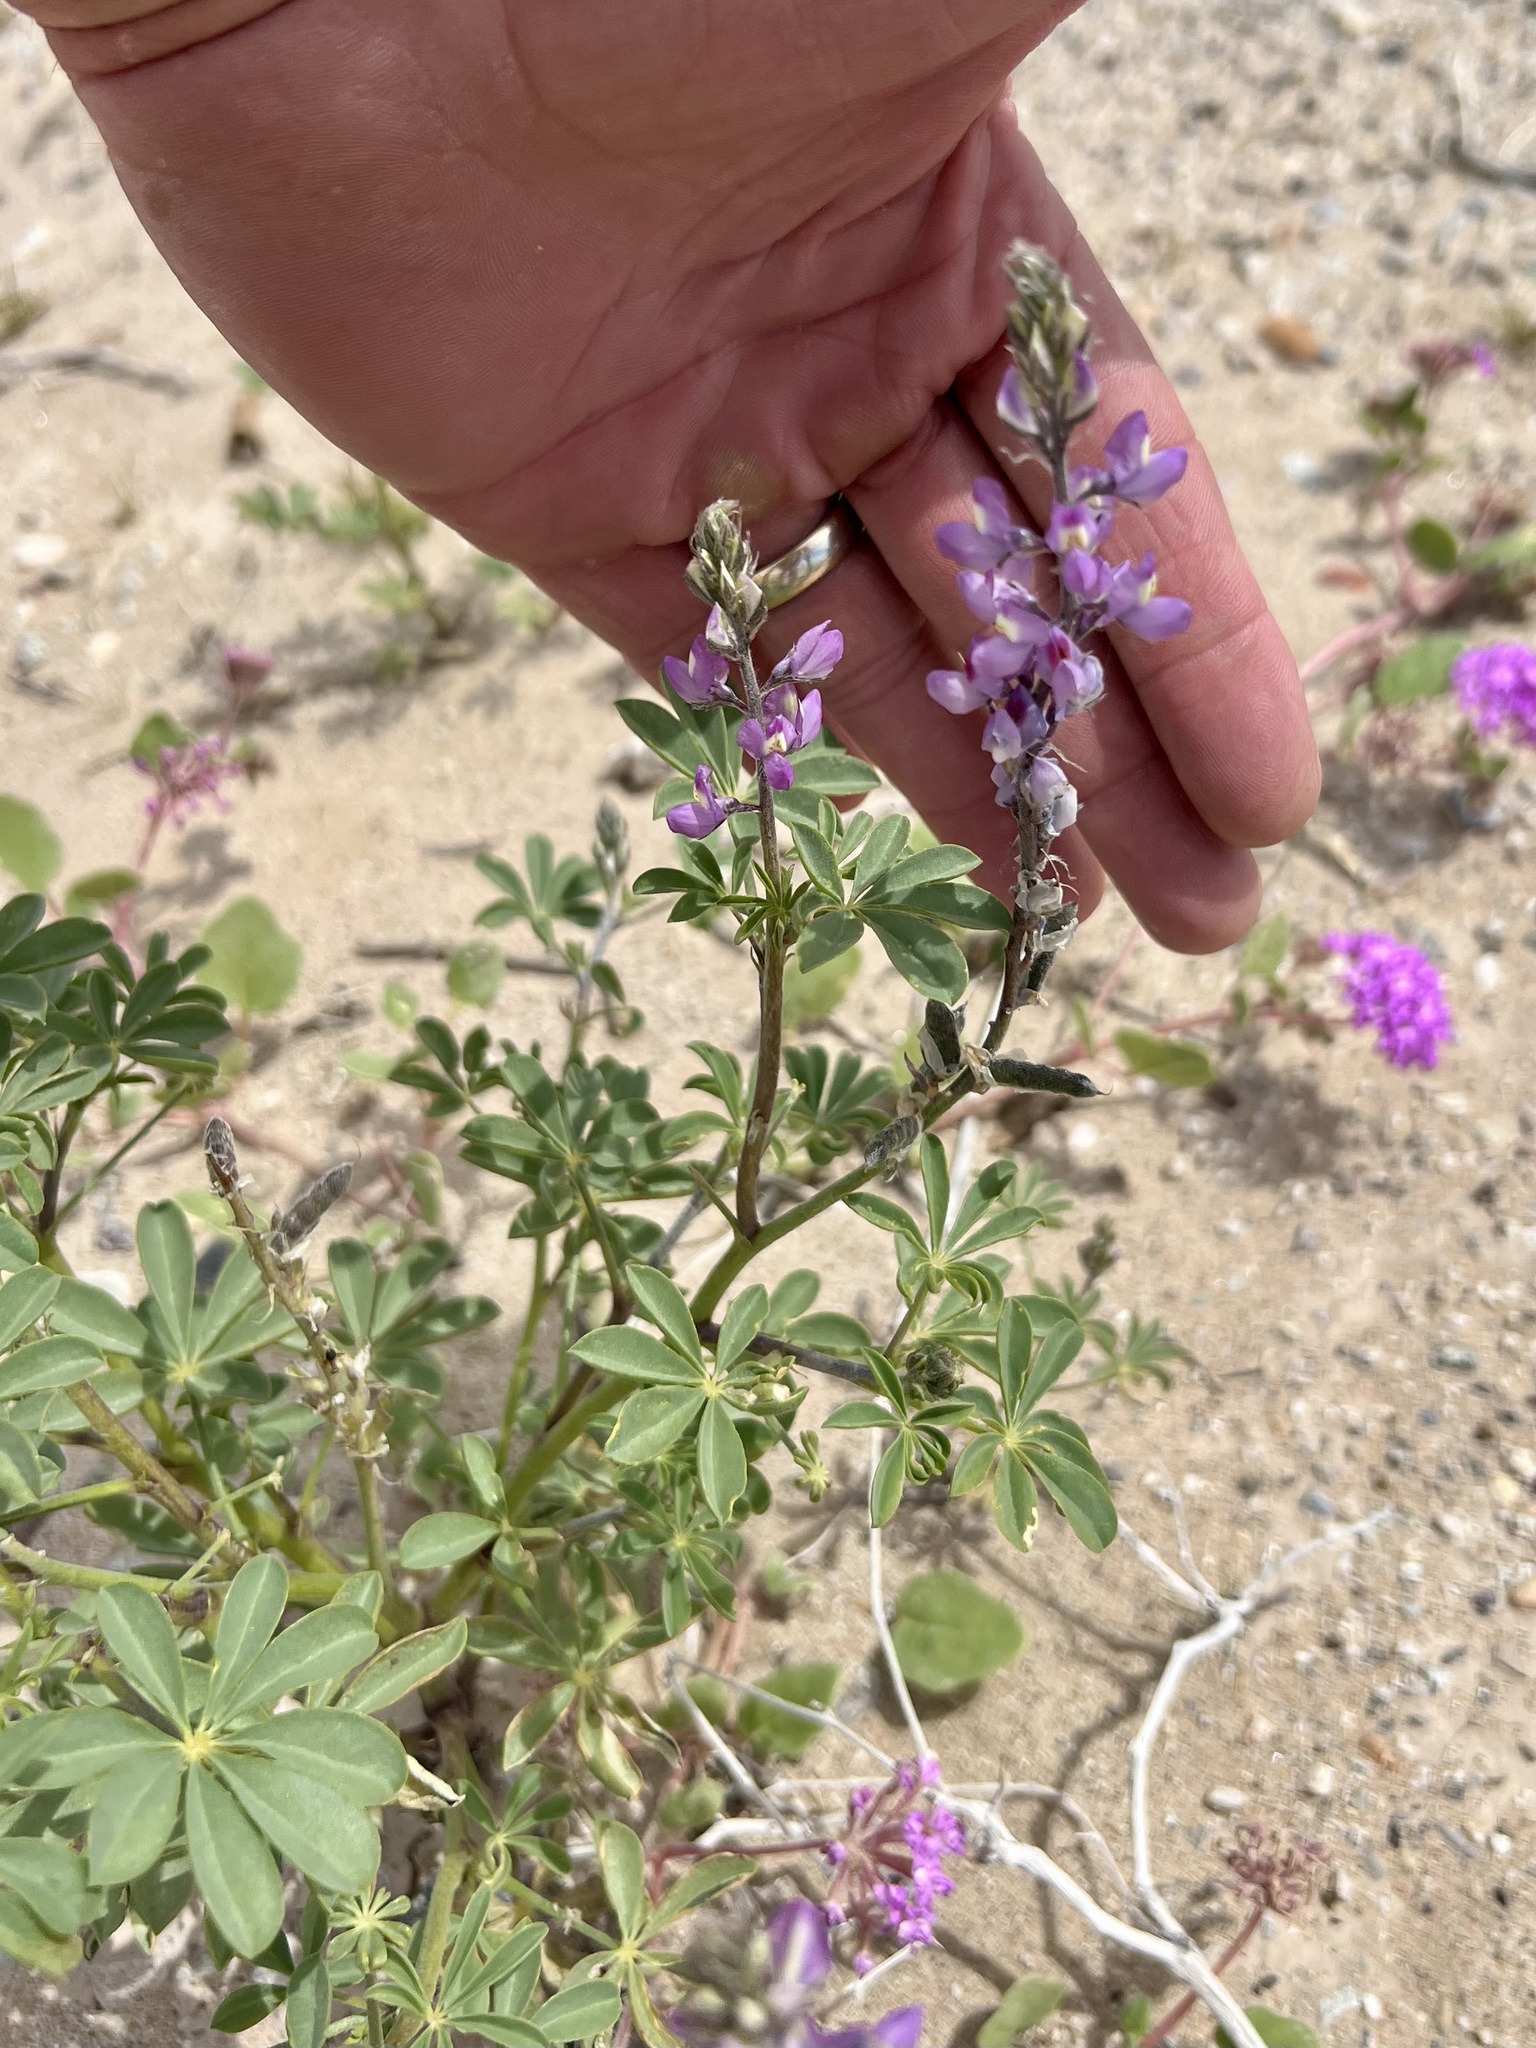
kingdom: Plantae
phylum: Tracheophyta
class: Magnoliopsida
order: Fabales
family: Fabaceae
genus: Lupinus
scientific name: Lupinus arizonicus
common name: Arizona lupine
